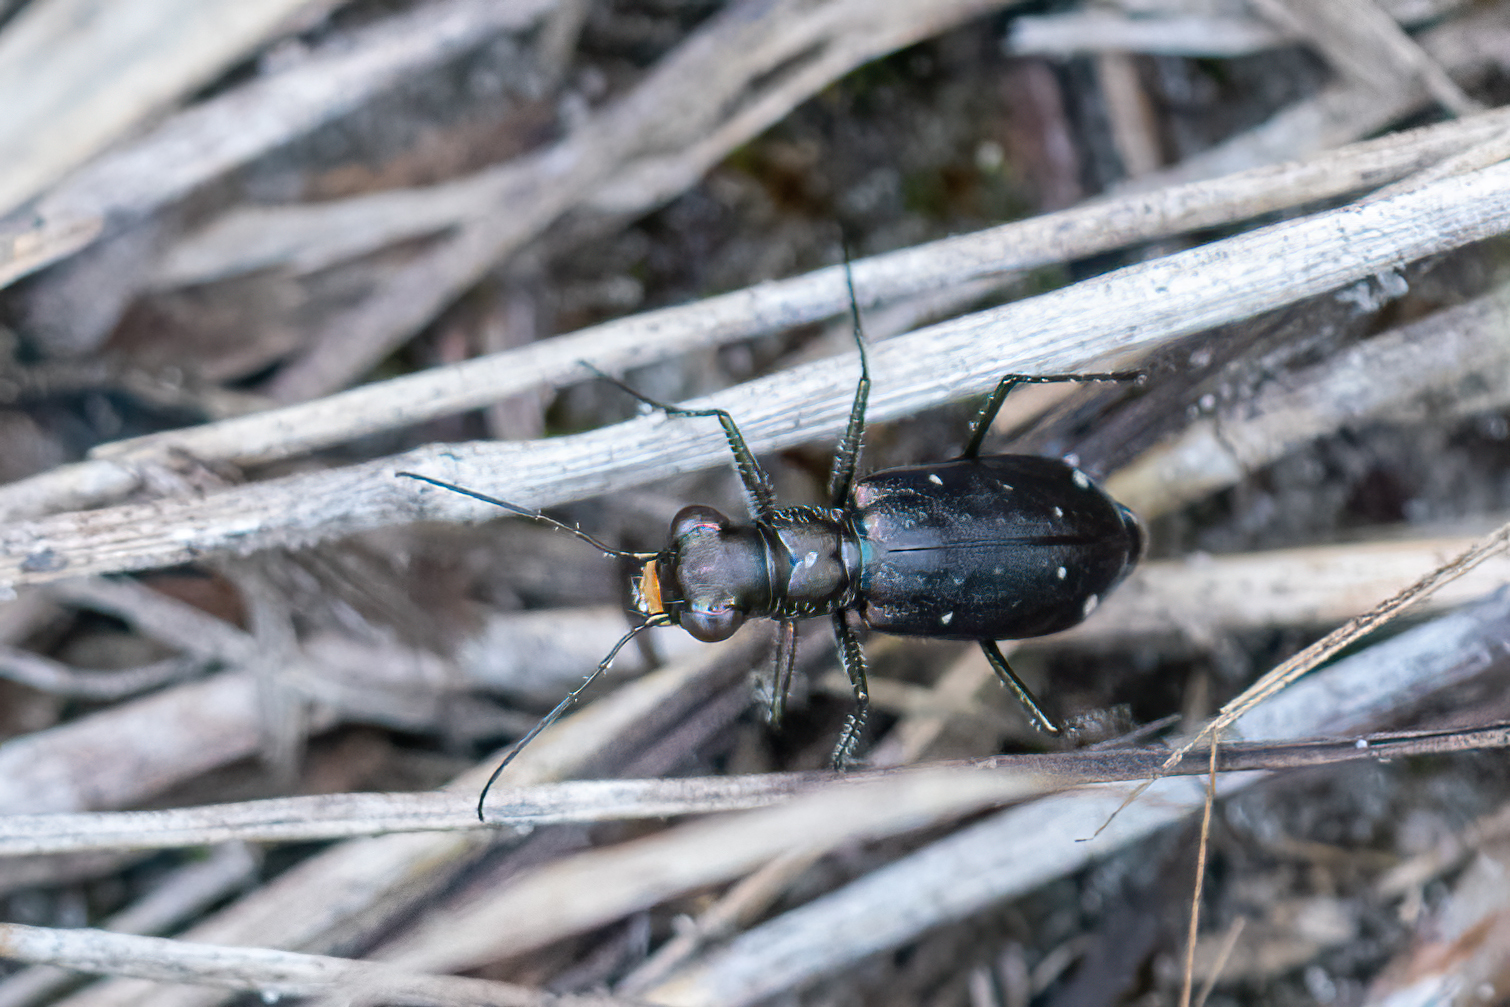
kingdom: Animalia
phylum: Arthropoda
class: Insecta
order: Coleoptera
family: Carabidae
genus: Cicindela
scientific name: Cicindela punctulata
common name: Punctured tiger beetle
